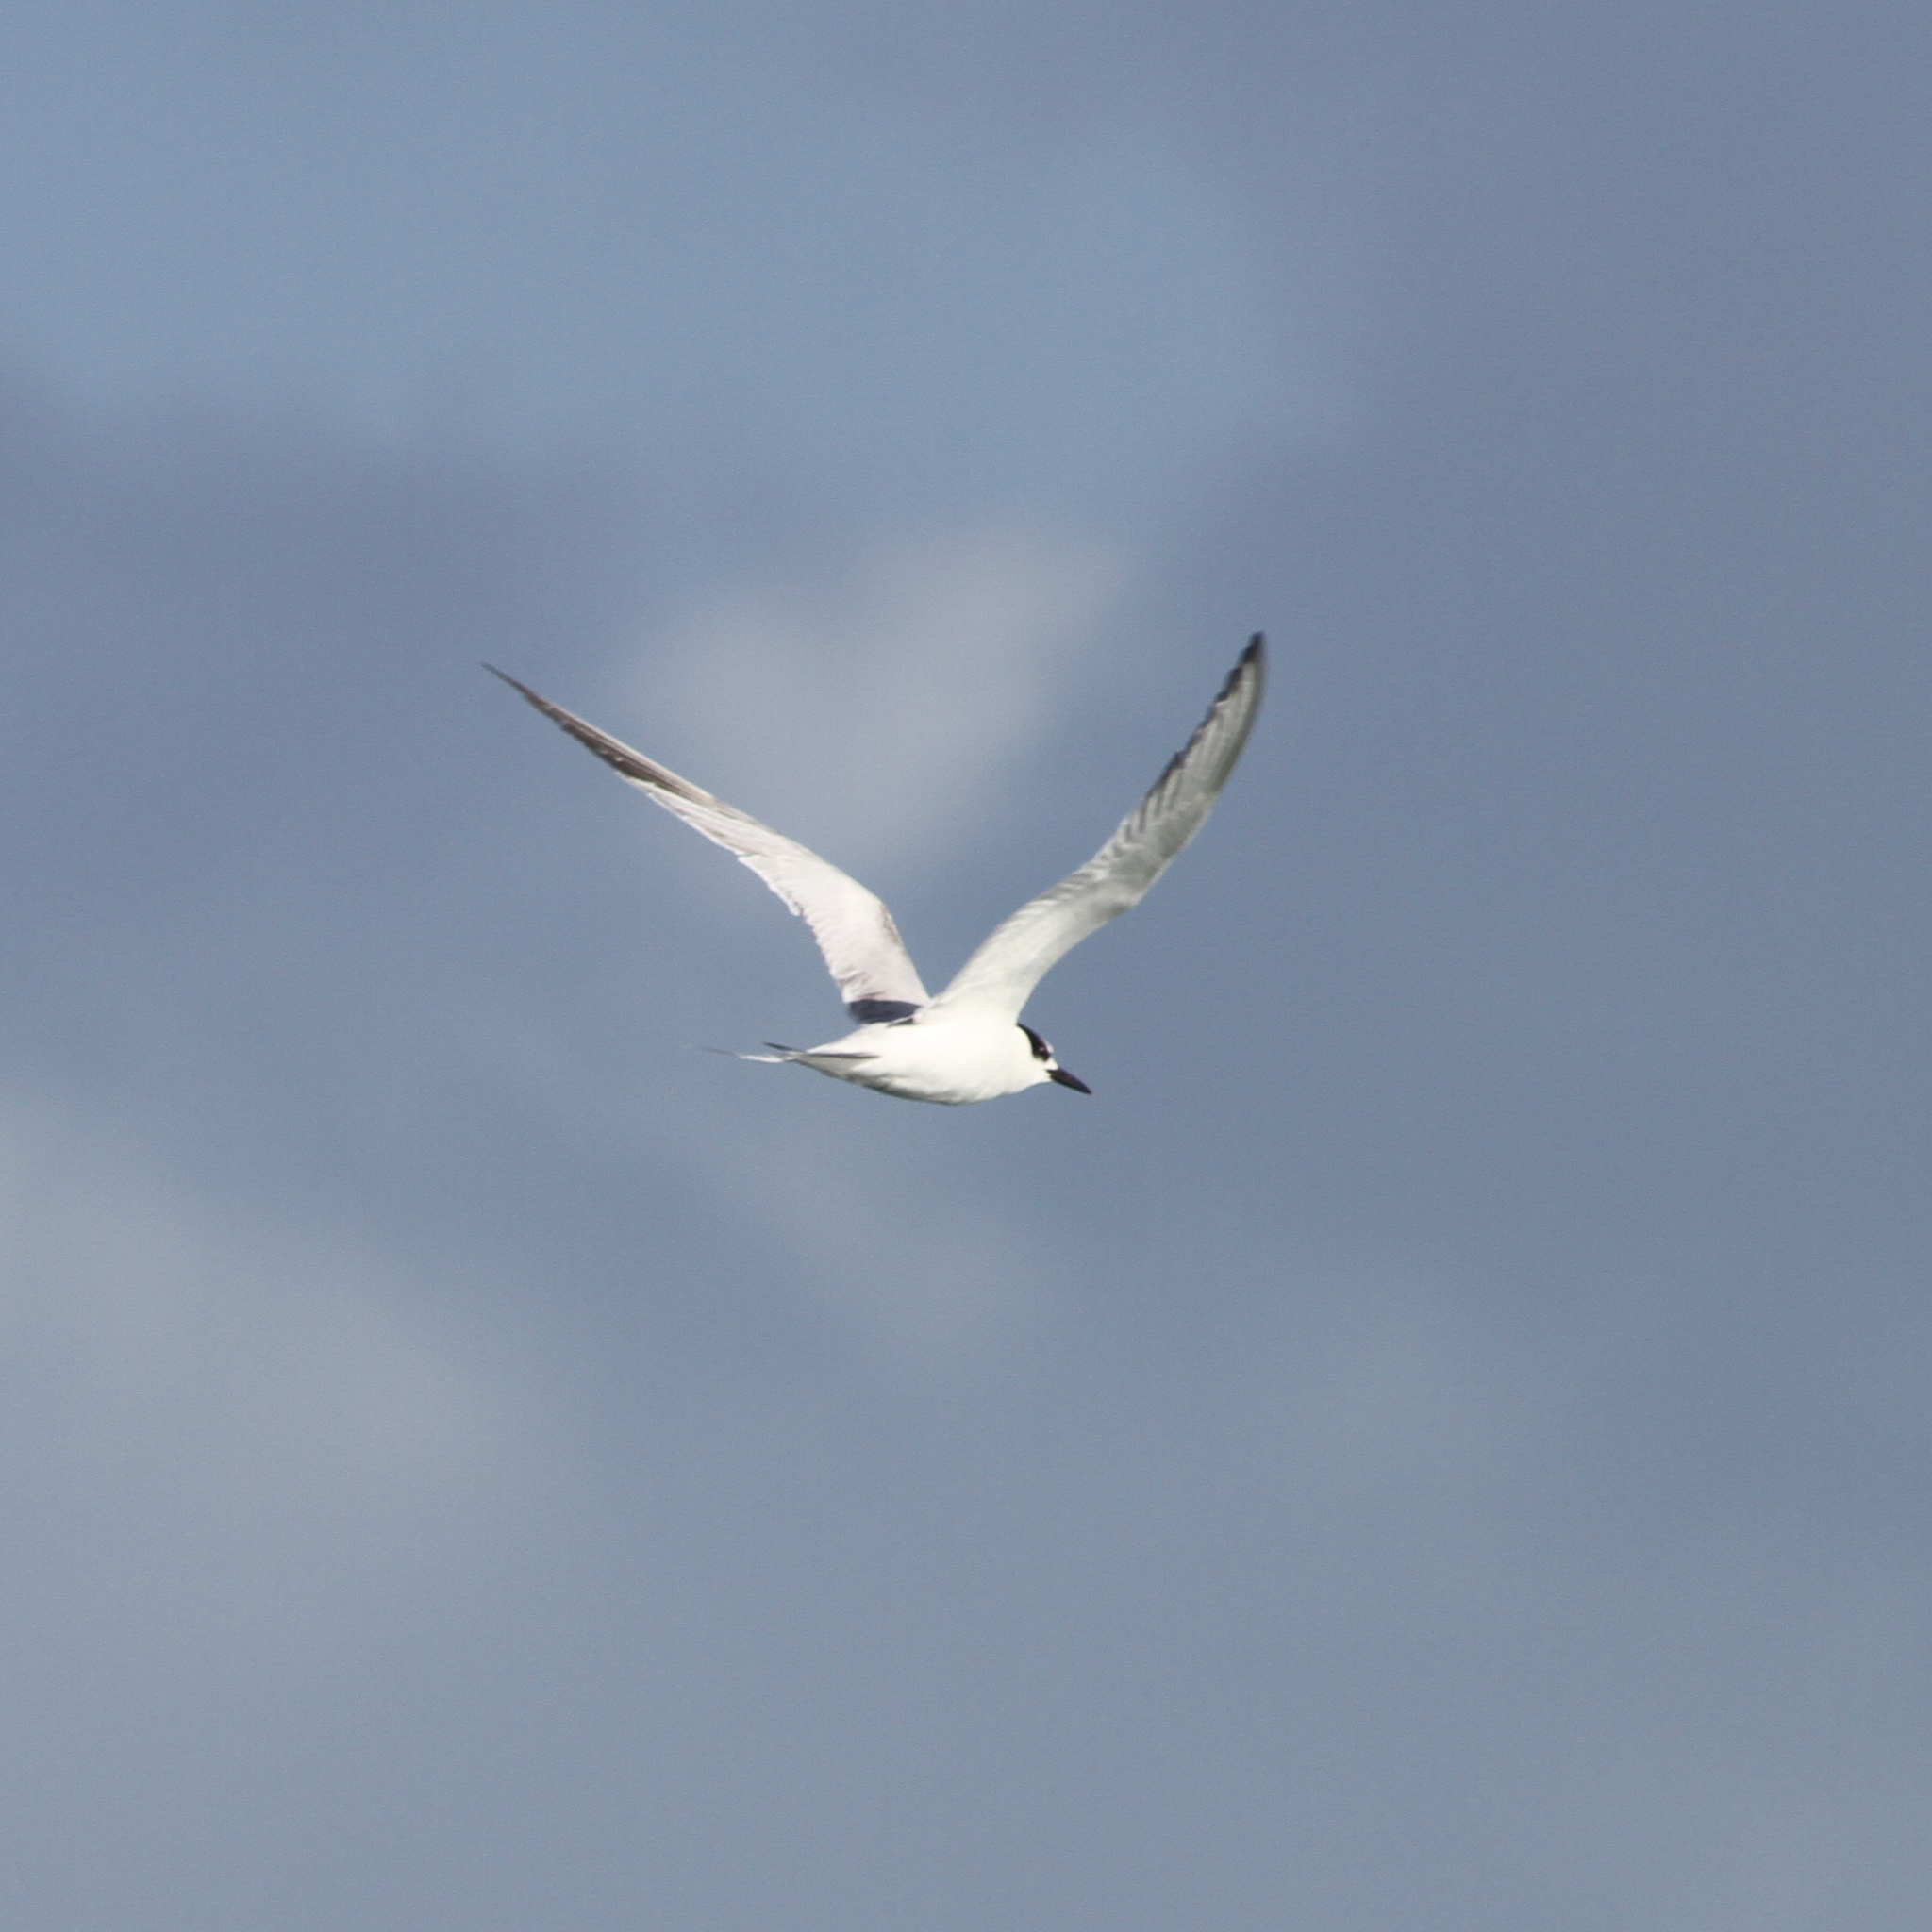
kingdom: Animalia
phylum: Chordata
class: Aves
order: Charadriiformes
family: Laridae
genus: Sterna
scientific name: Sterna hirundo
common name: Common tern
